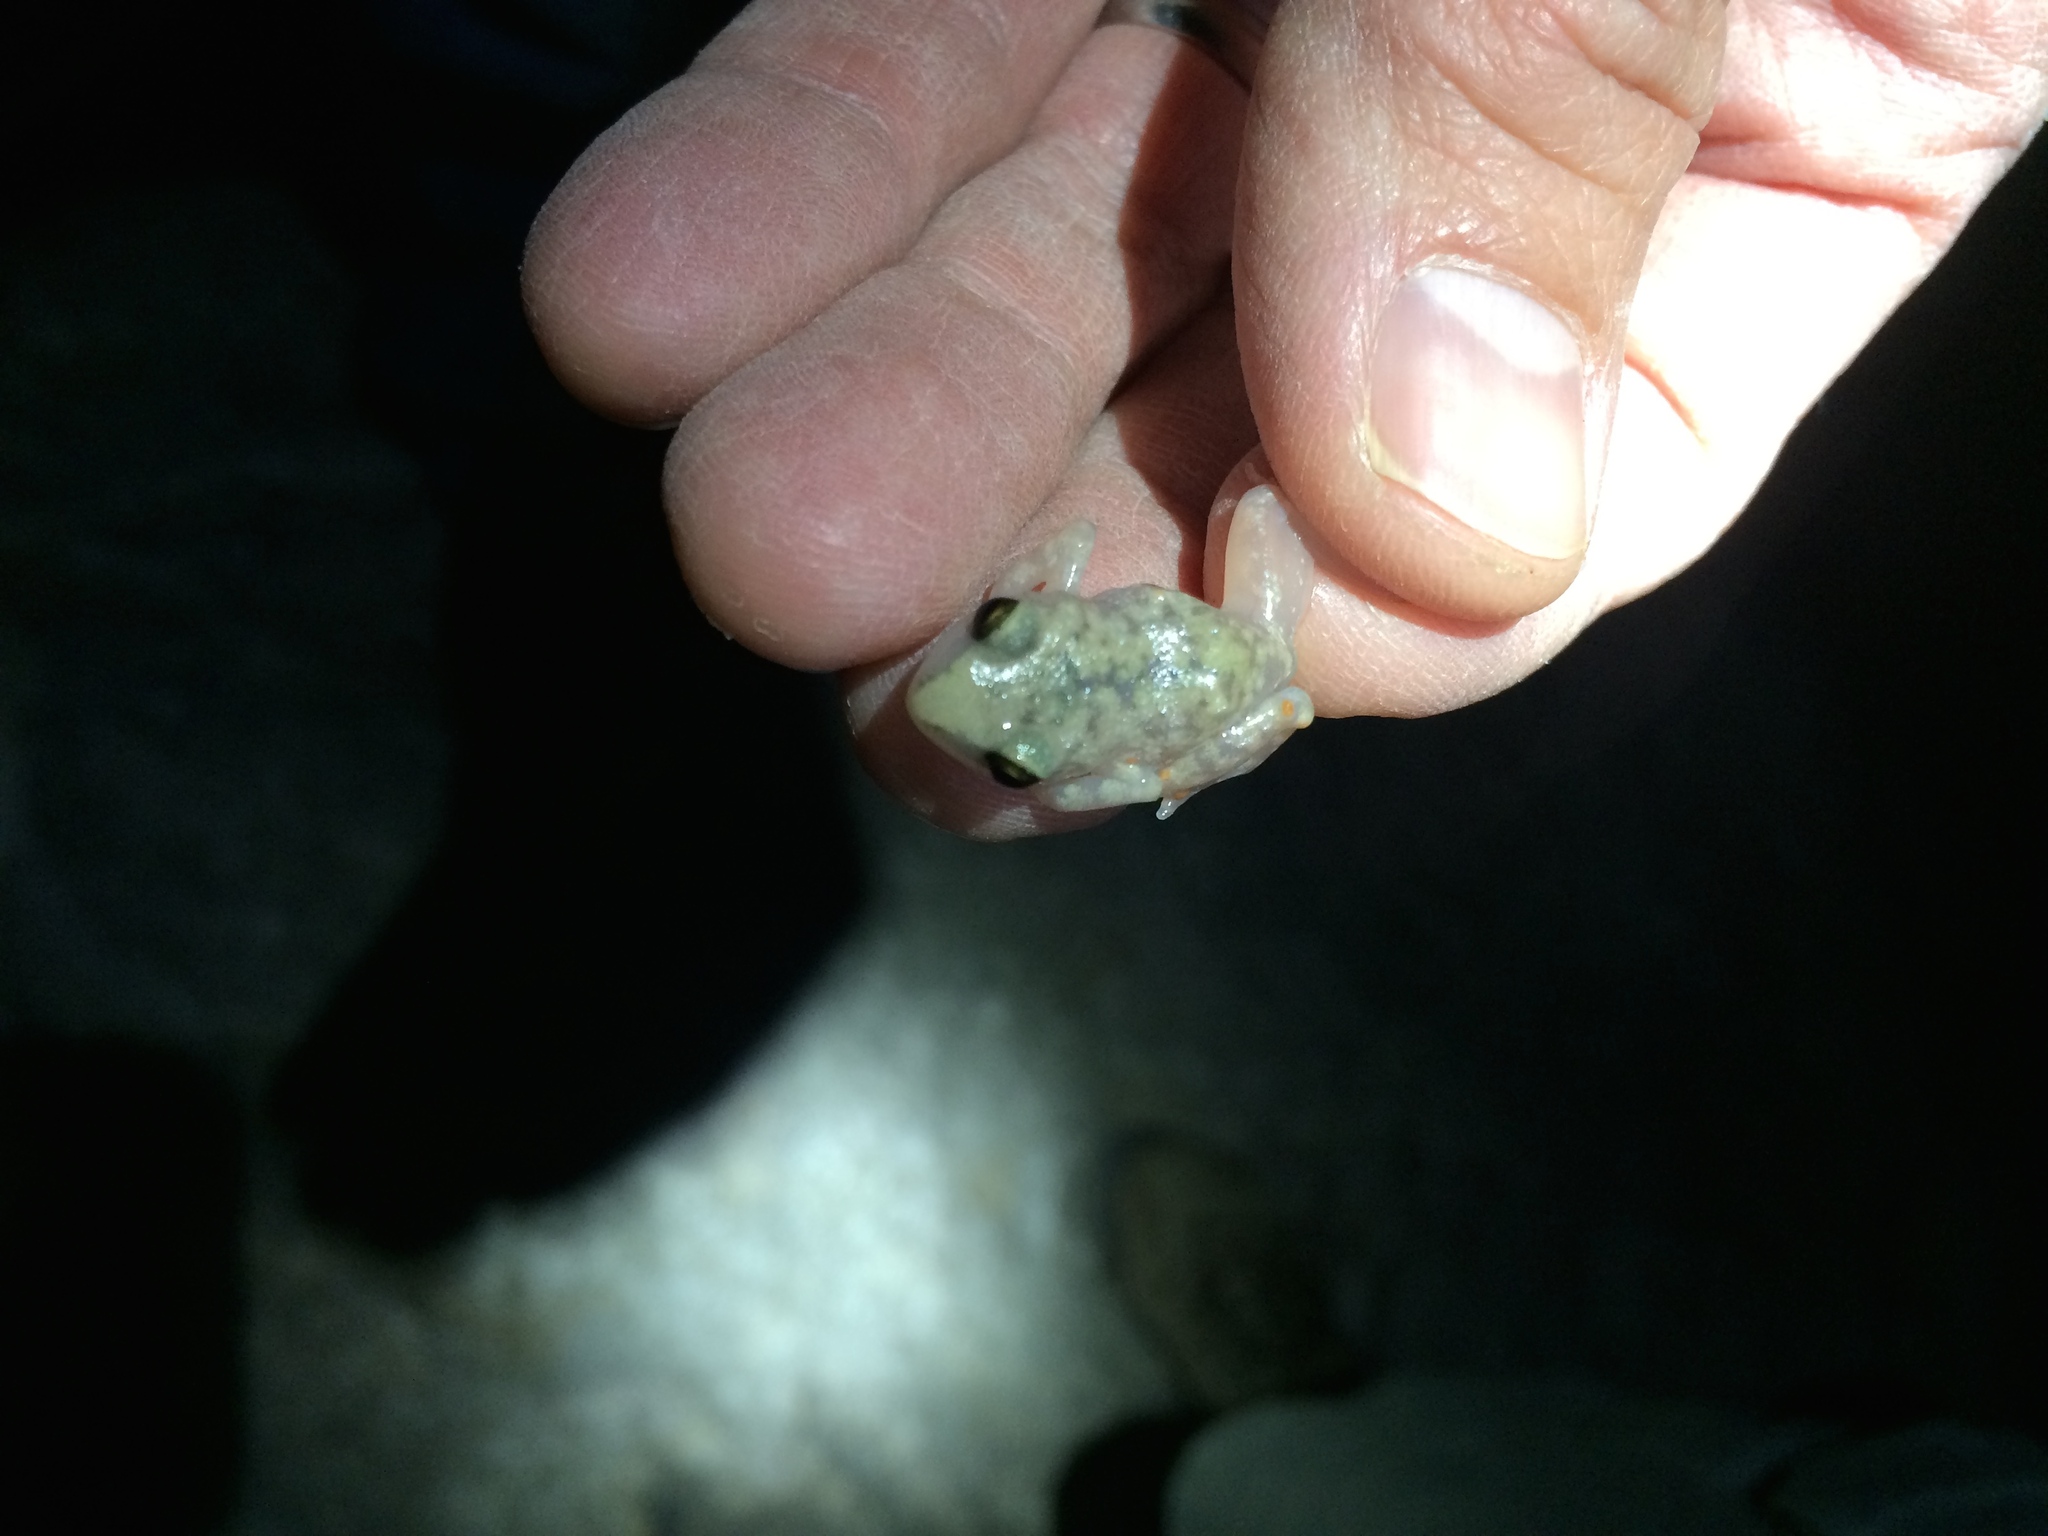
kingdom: Animalia
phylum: Chordata
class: Amphibia
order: Anura
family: Eleutherodactylidae
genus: Eleutherodactylus
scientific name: Eleutherodactylus marnockii
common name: Cliff chirping frog
